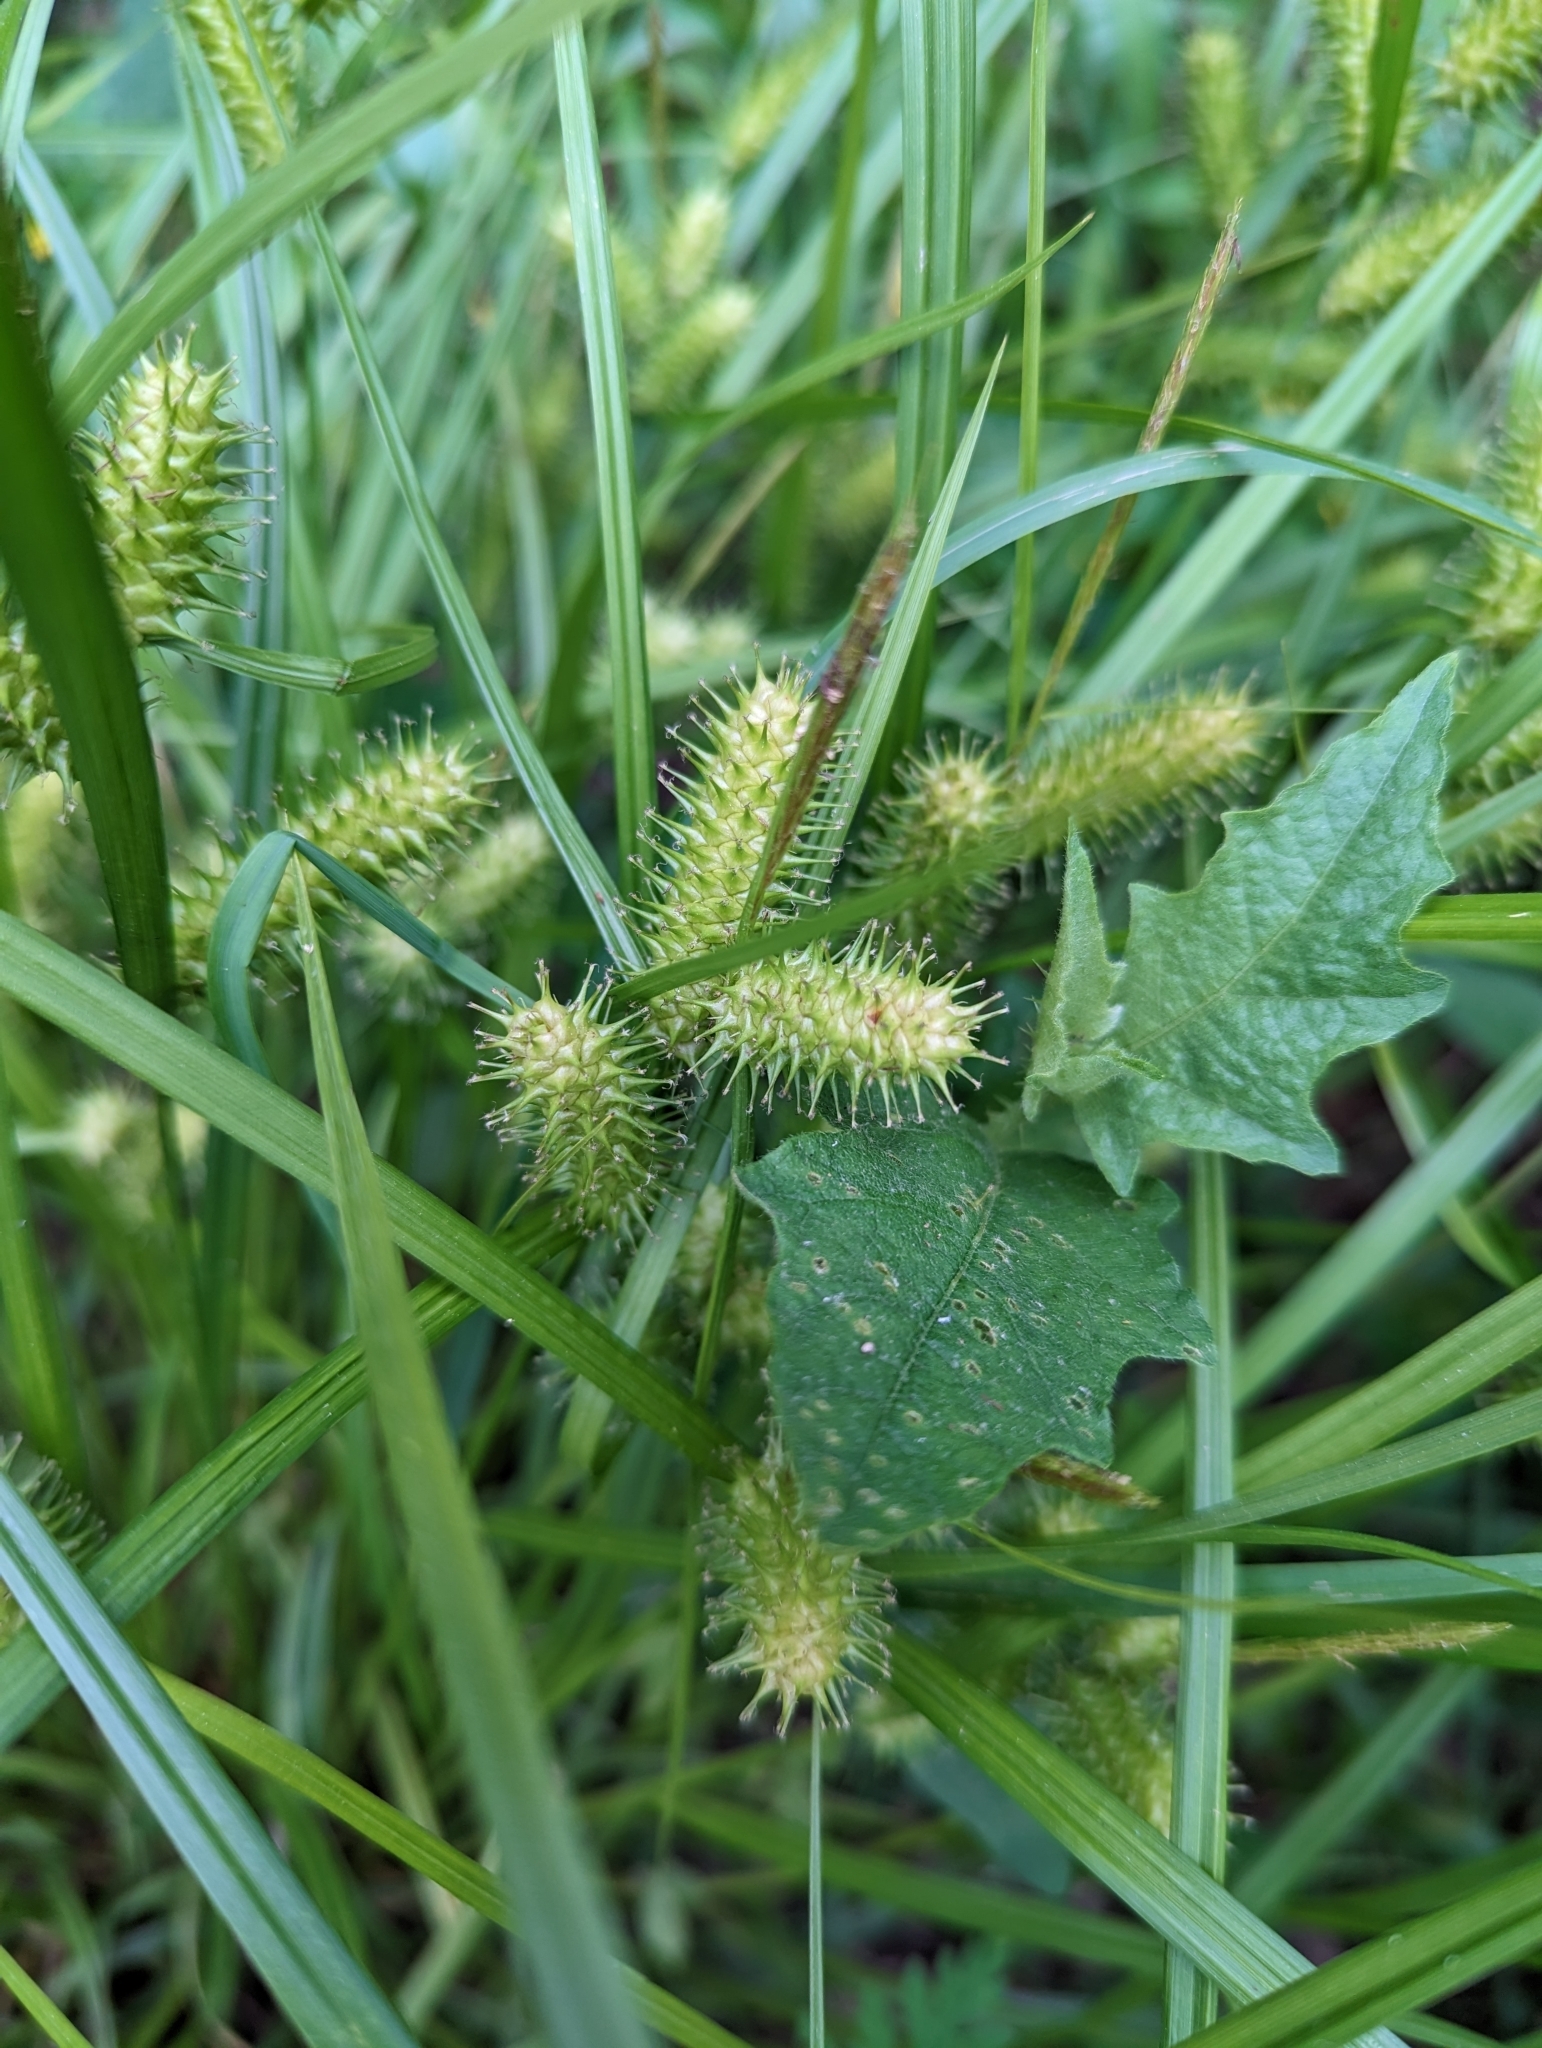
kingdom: Plantae
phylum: Tracheophyta
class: Liliopsida
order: Poales
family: Cyperaceae
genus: Carex
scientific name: Carex lurida
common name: Sallow sedge
